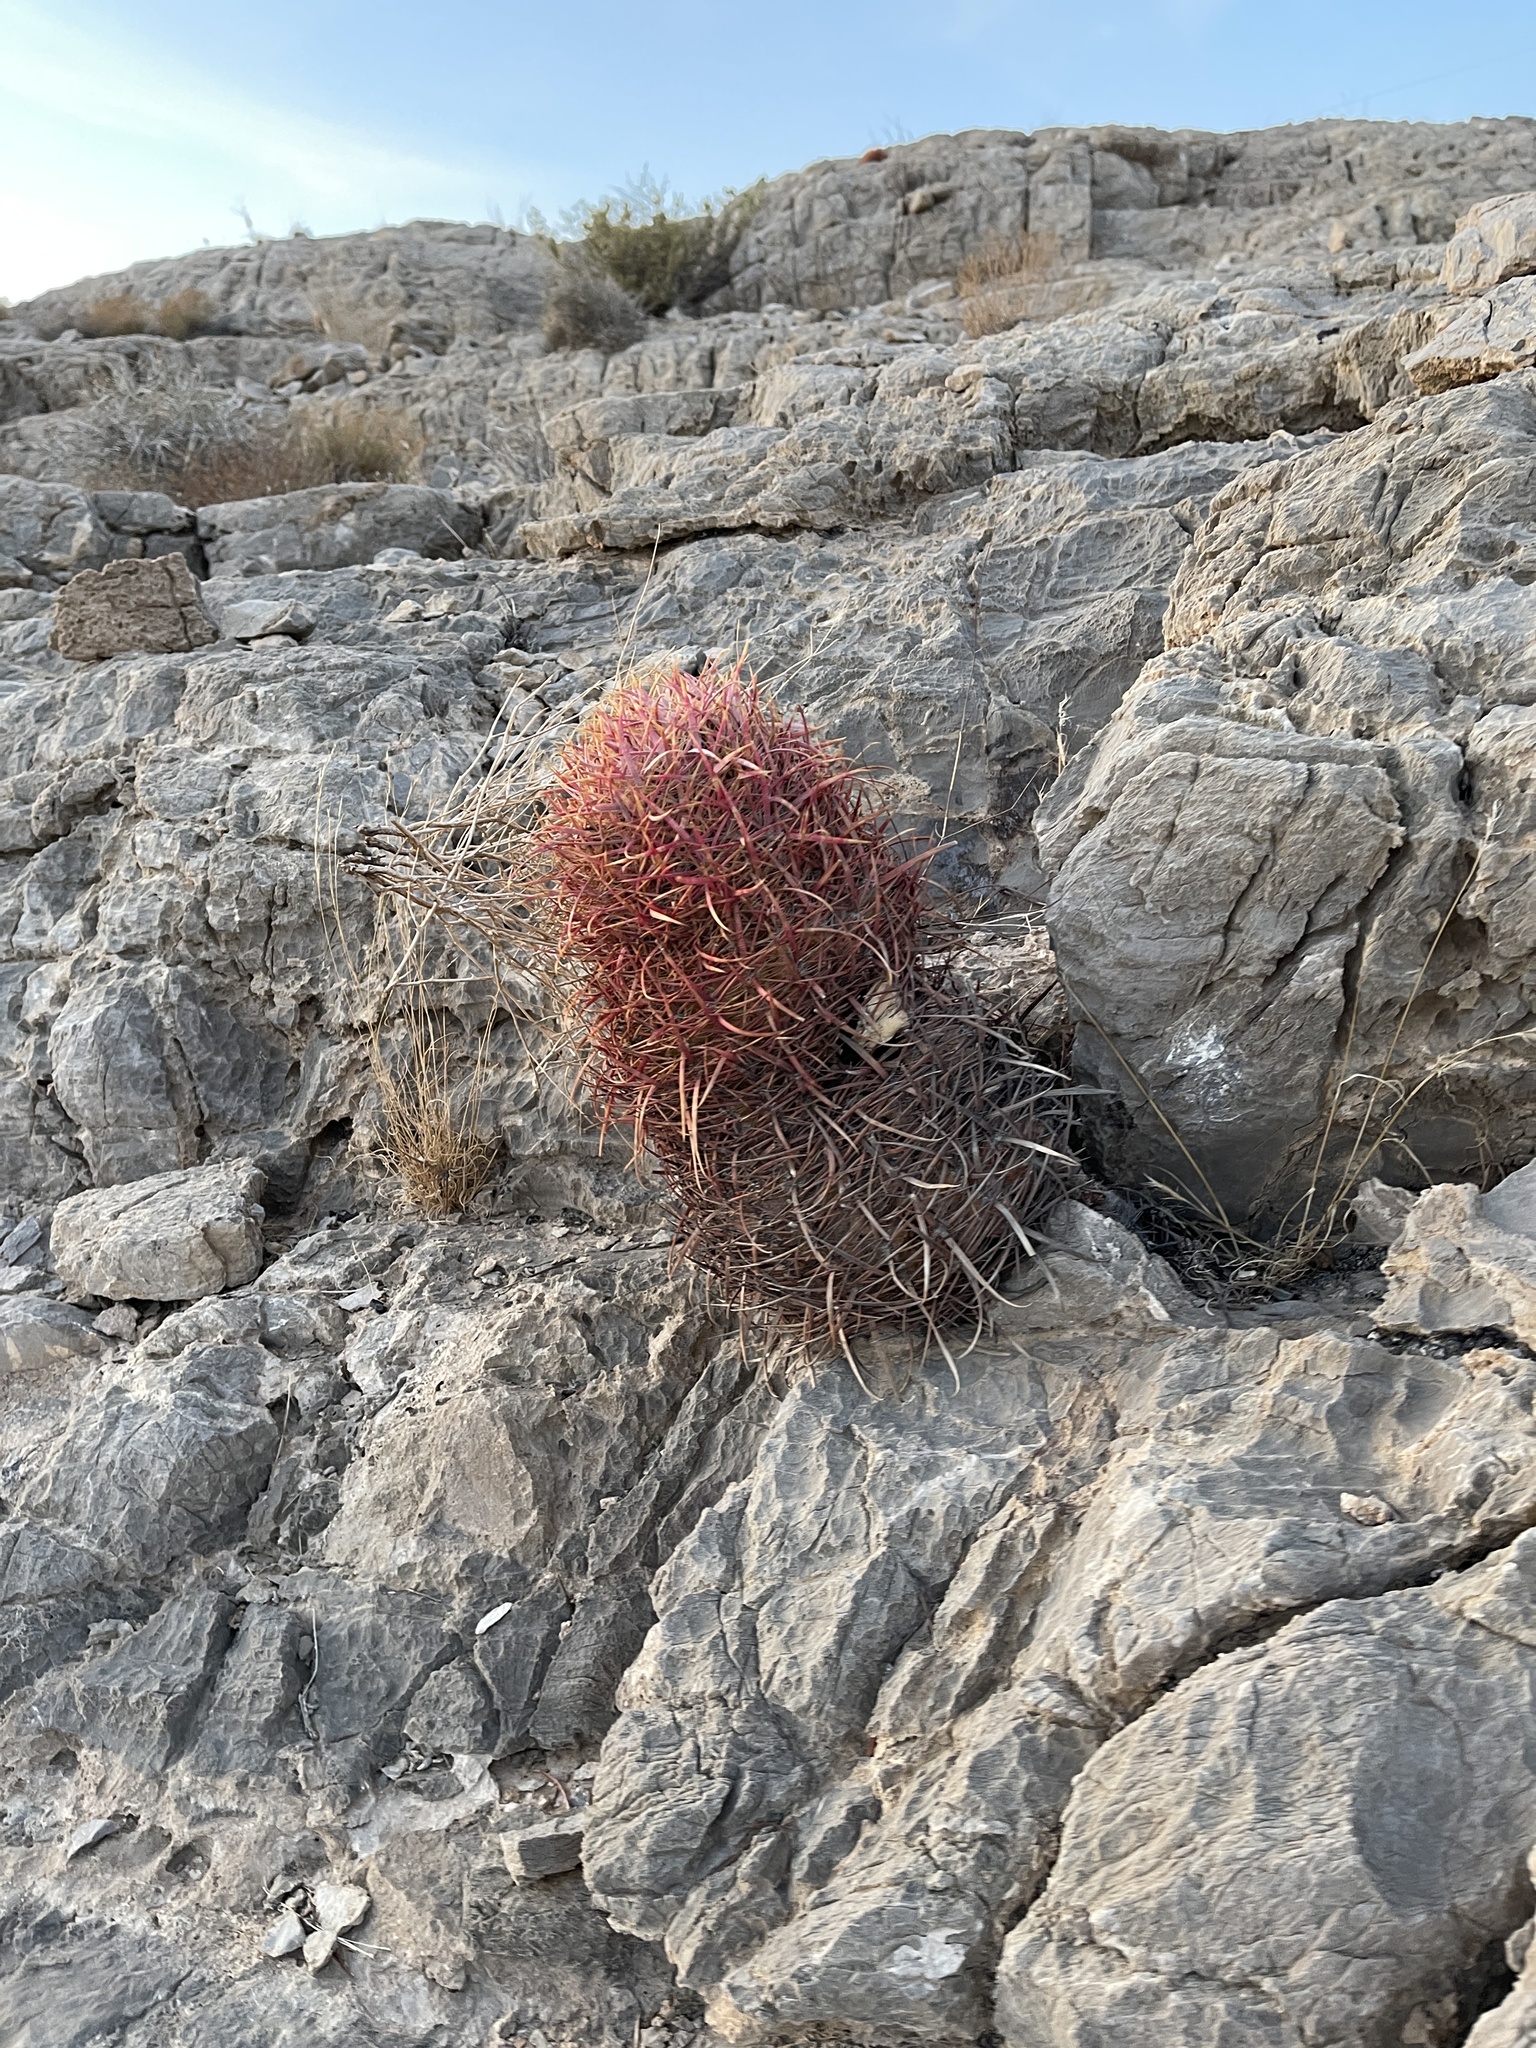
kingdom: Plantae
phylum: Tracheophyta
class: Magnoliopsida
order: Caryophyllales
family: Cactaceae
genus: Ferocactus
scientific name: Ferocactus cylindraceus
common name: California barrel cactus
